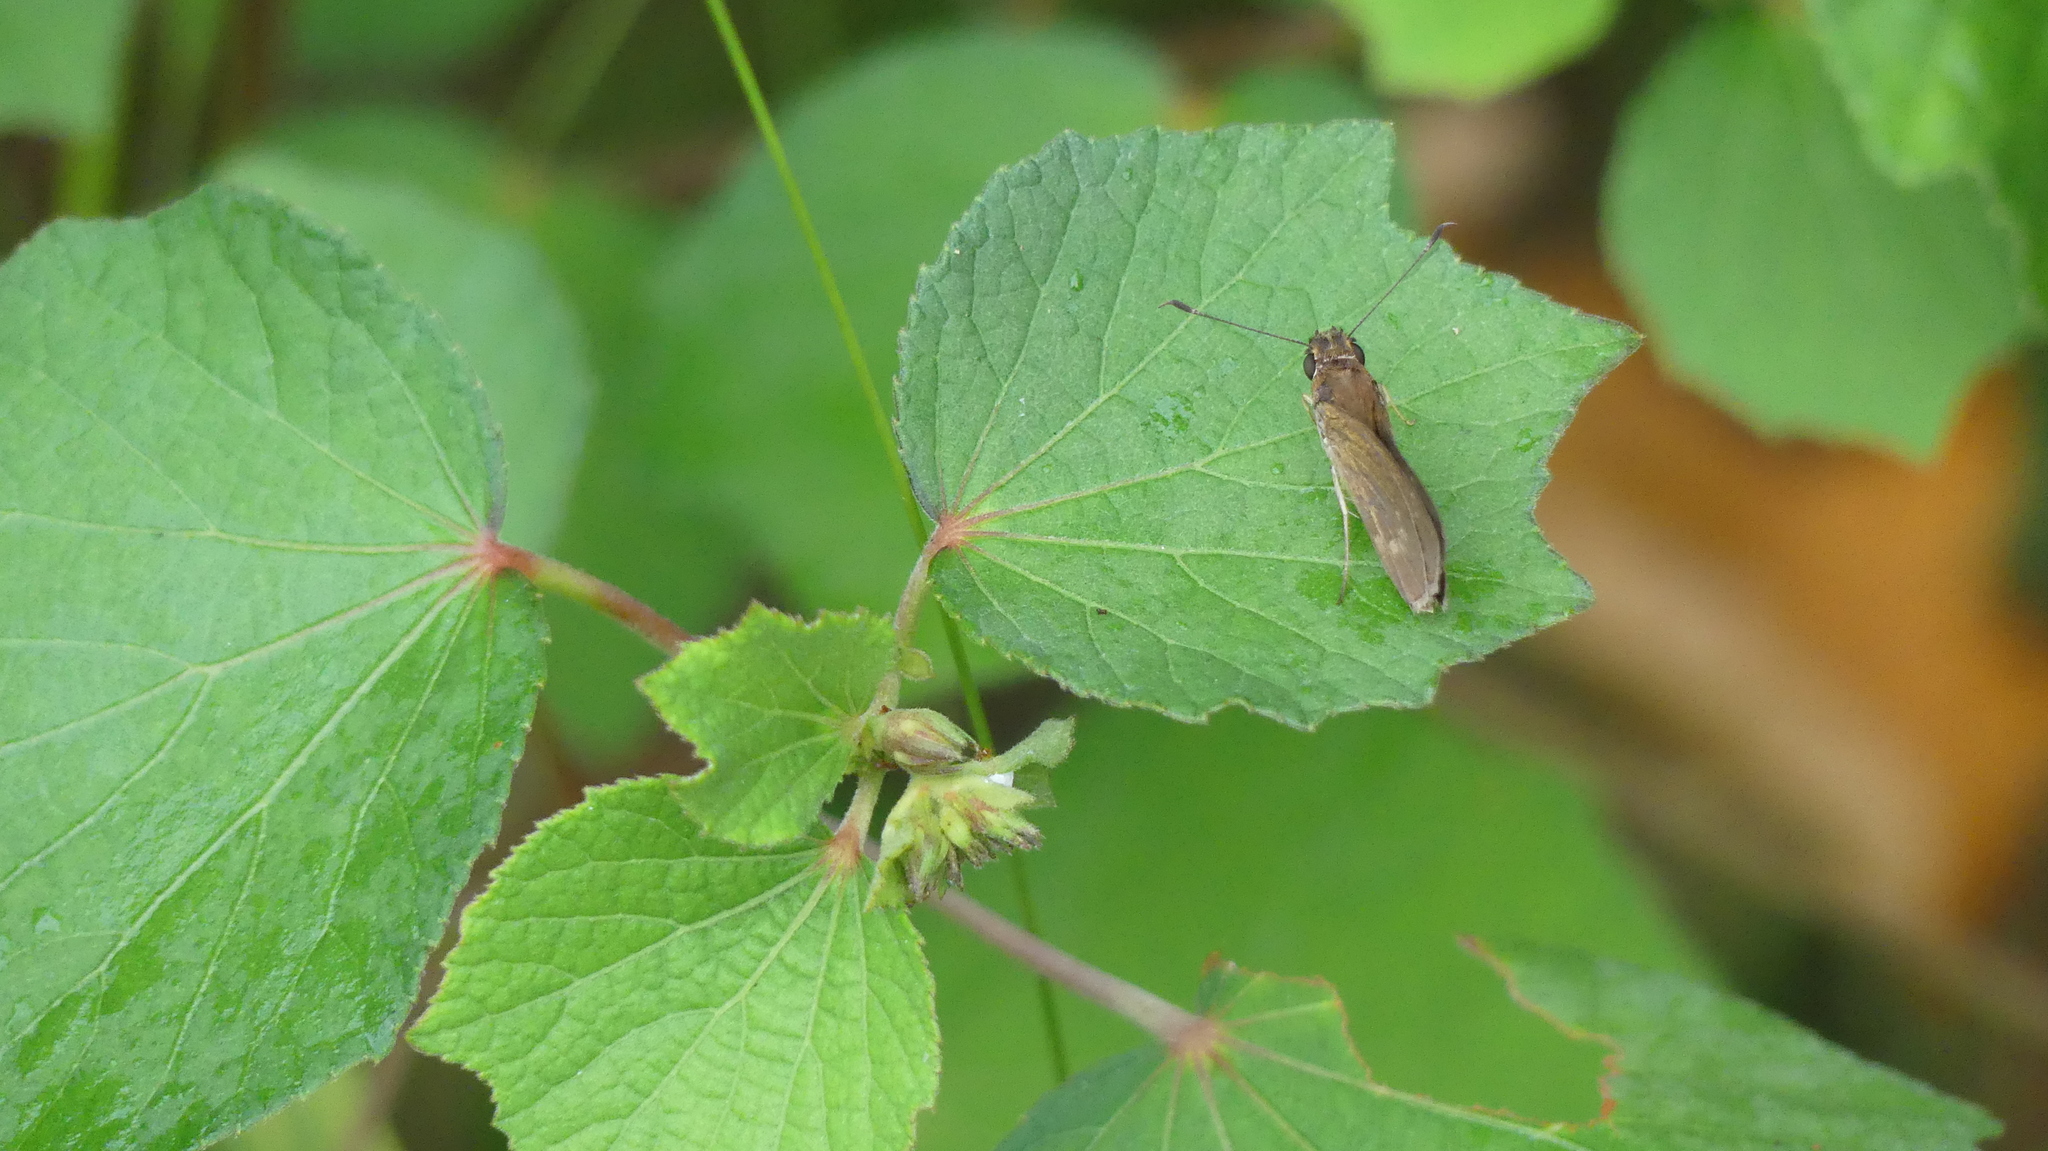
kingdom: Animalia
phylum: Arthropoda
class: Insecta
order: Lepidoptera
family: Hesperiidae
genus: Cymaenes
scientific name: Cymaenes tripunctus
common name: Dingy dotted skipper
